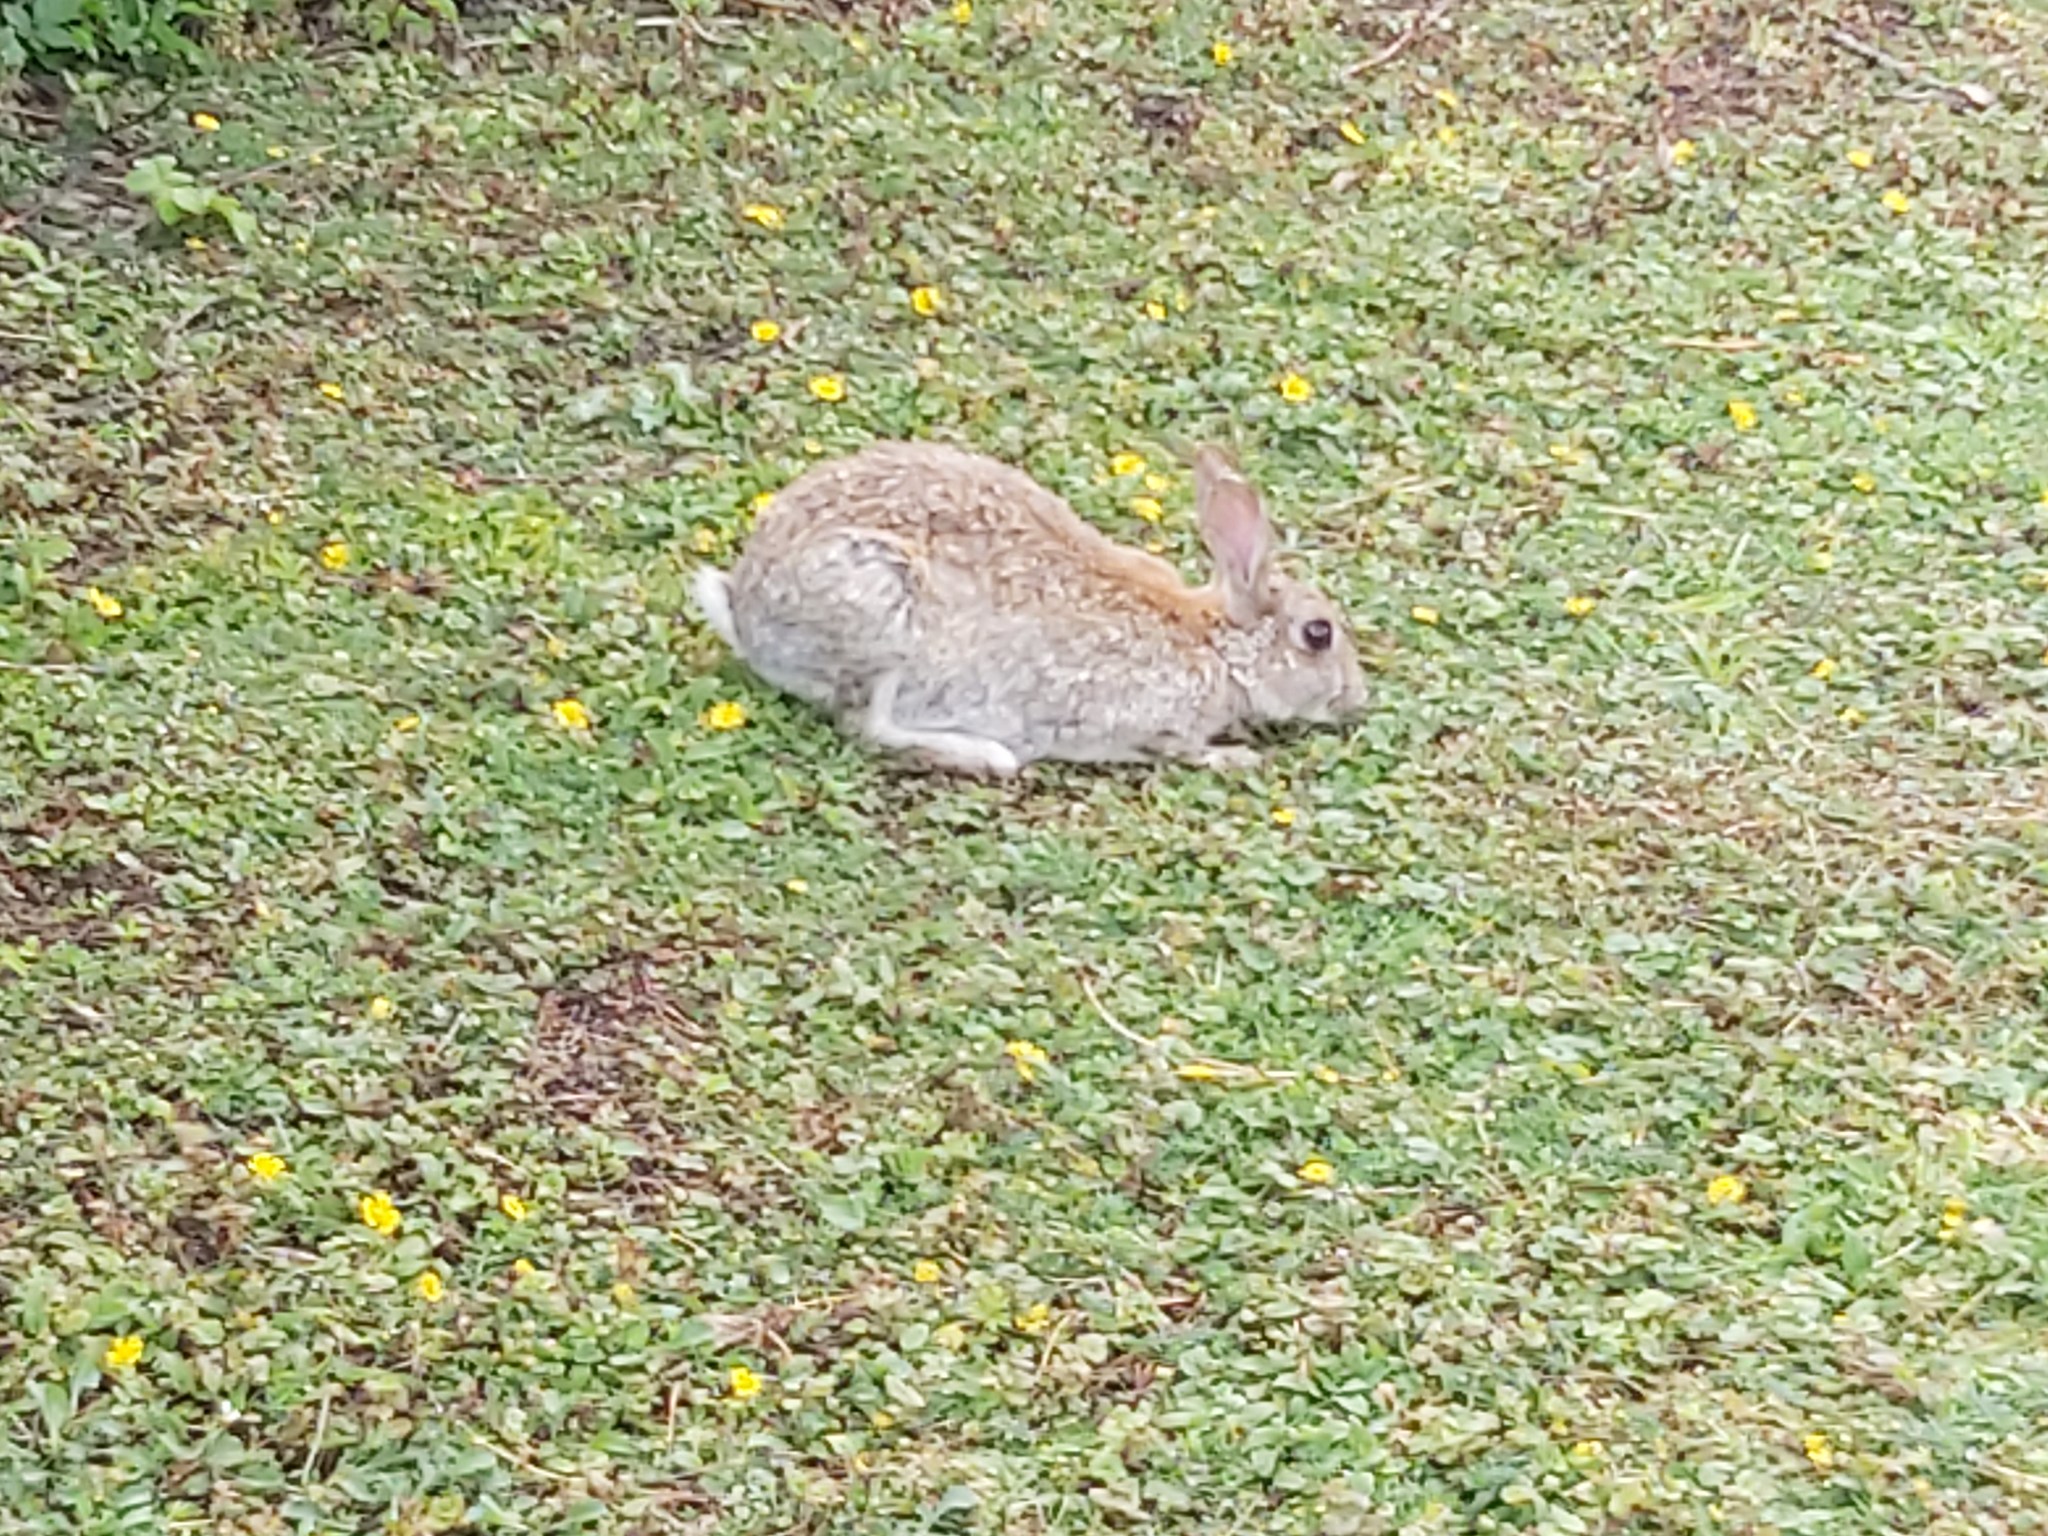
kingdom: Animalia
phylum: Chordata
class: Mammalia
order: Lagomorpha
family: Leporidae
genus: Oryctolagus
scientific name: Oryctolagus cuniculus
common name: European rabbit
